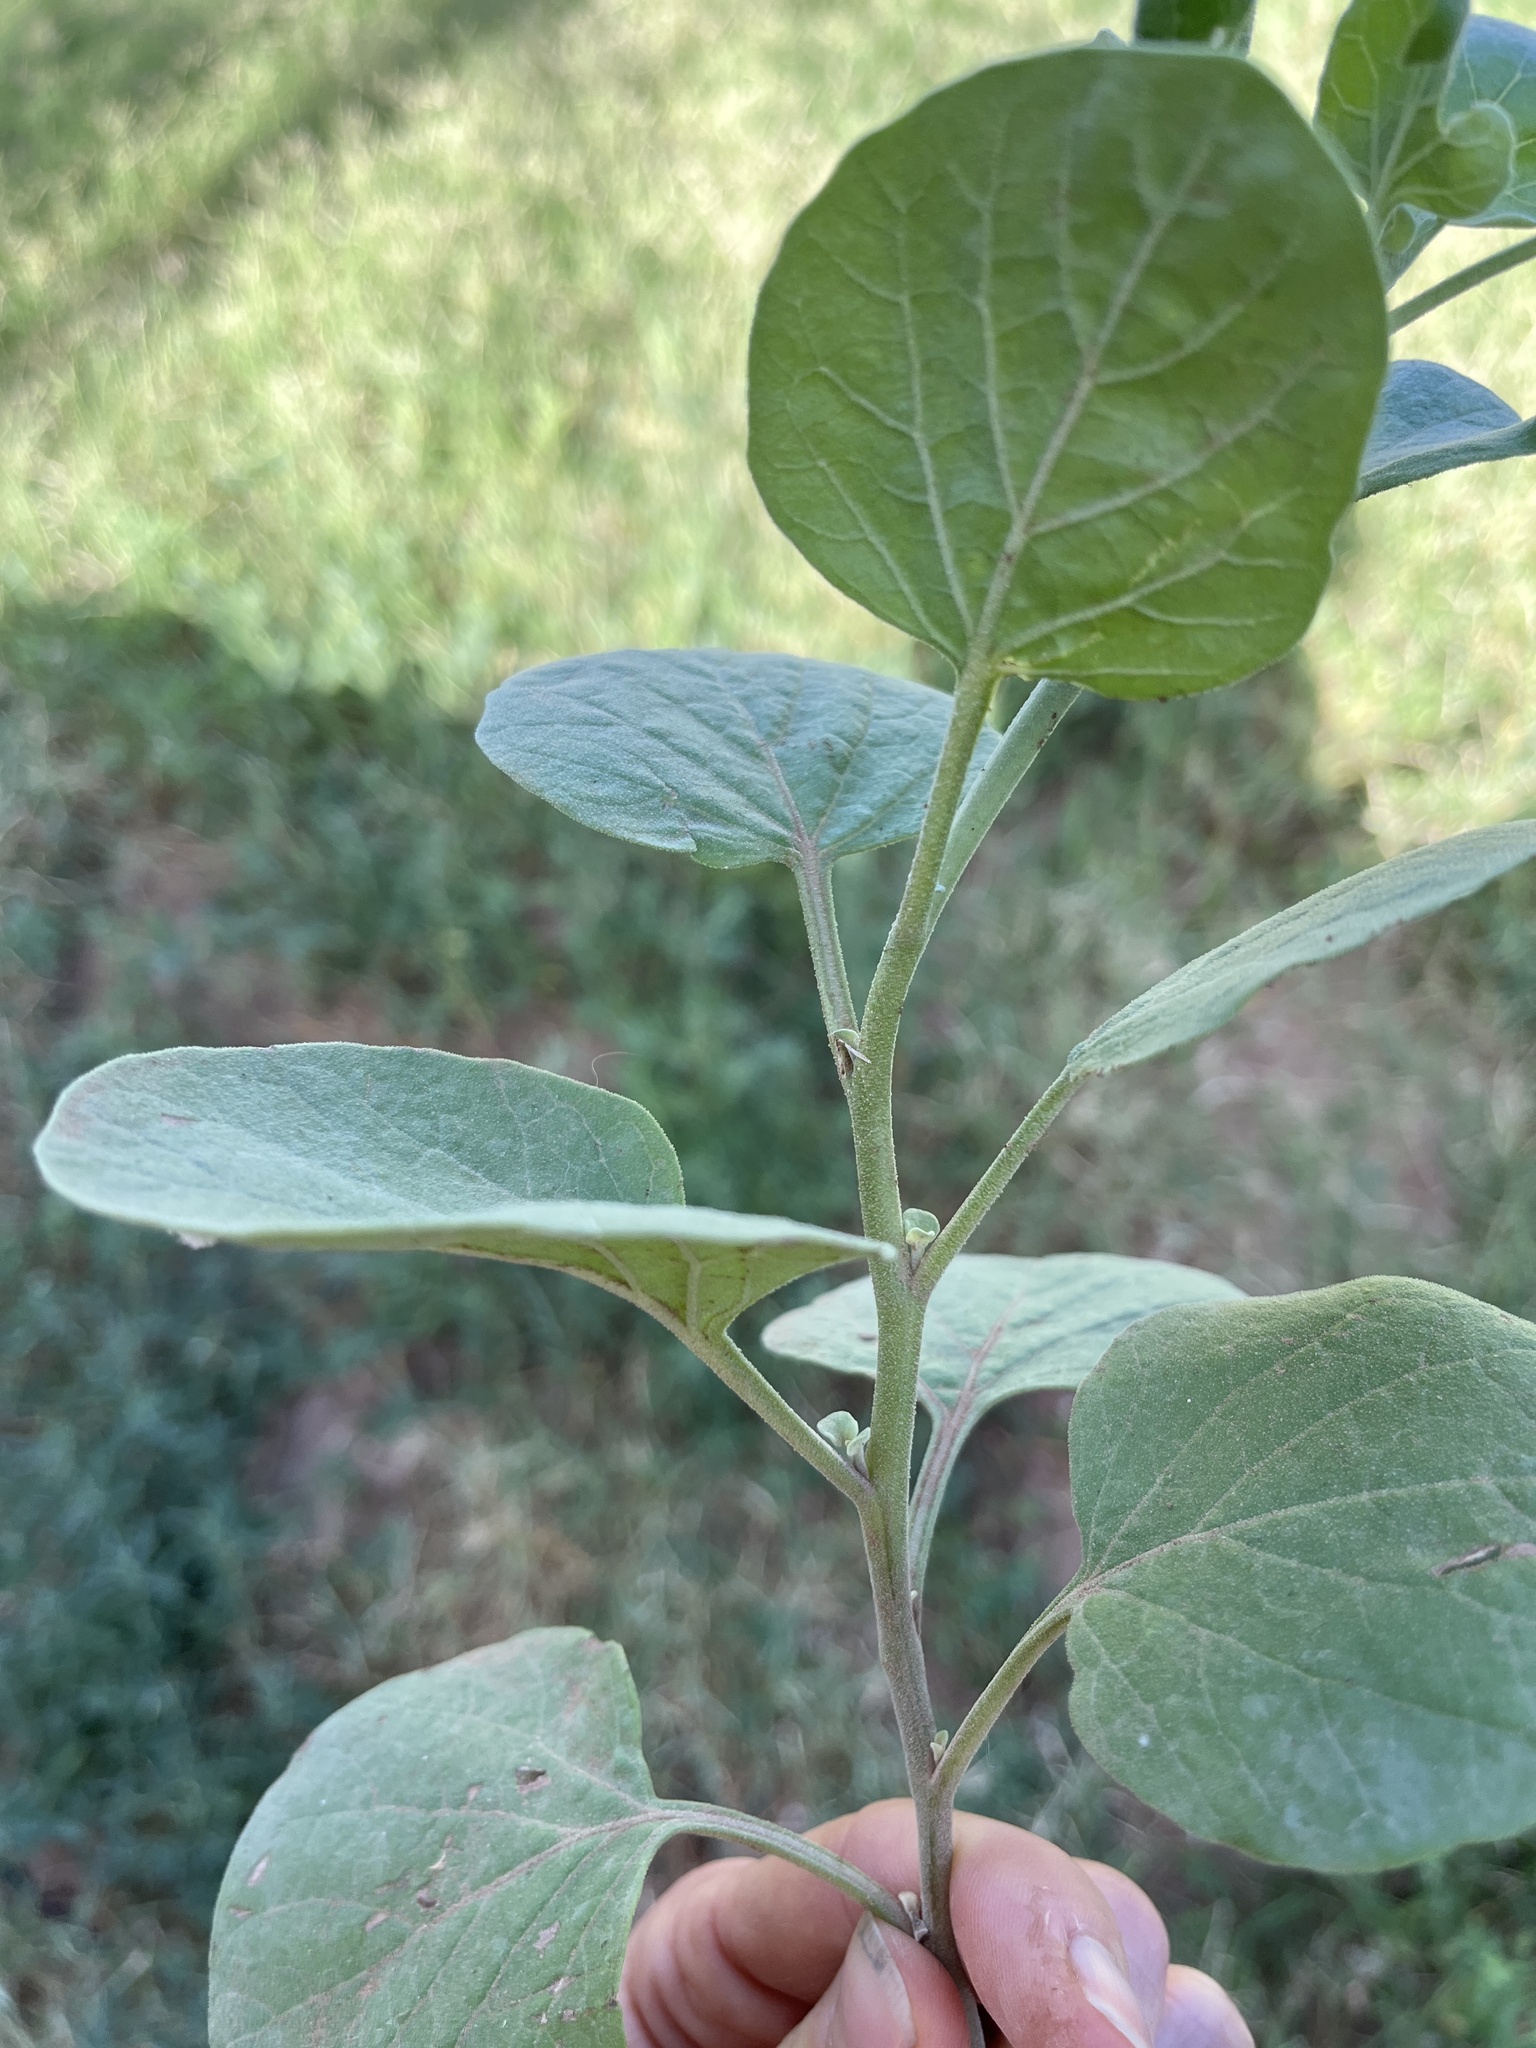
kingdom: Plantae
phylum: Tracheophyta
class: Magnoliopsida
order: Solanales
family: Solanaceae
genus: Physalis
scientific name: Physalis cinerascens
